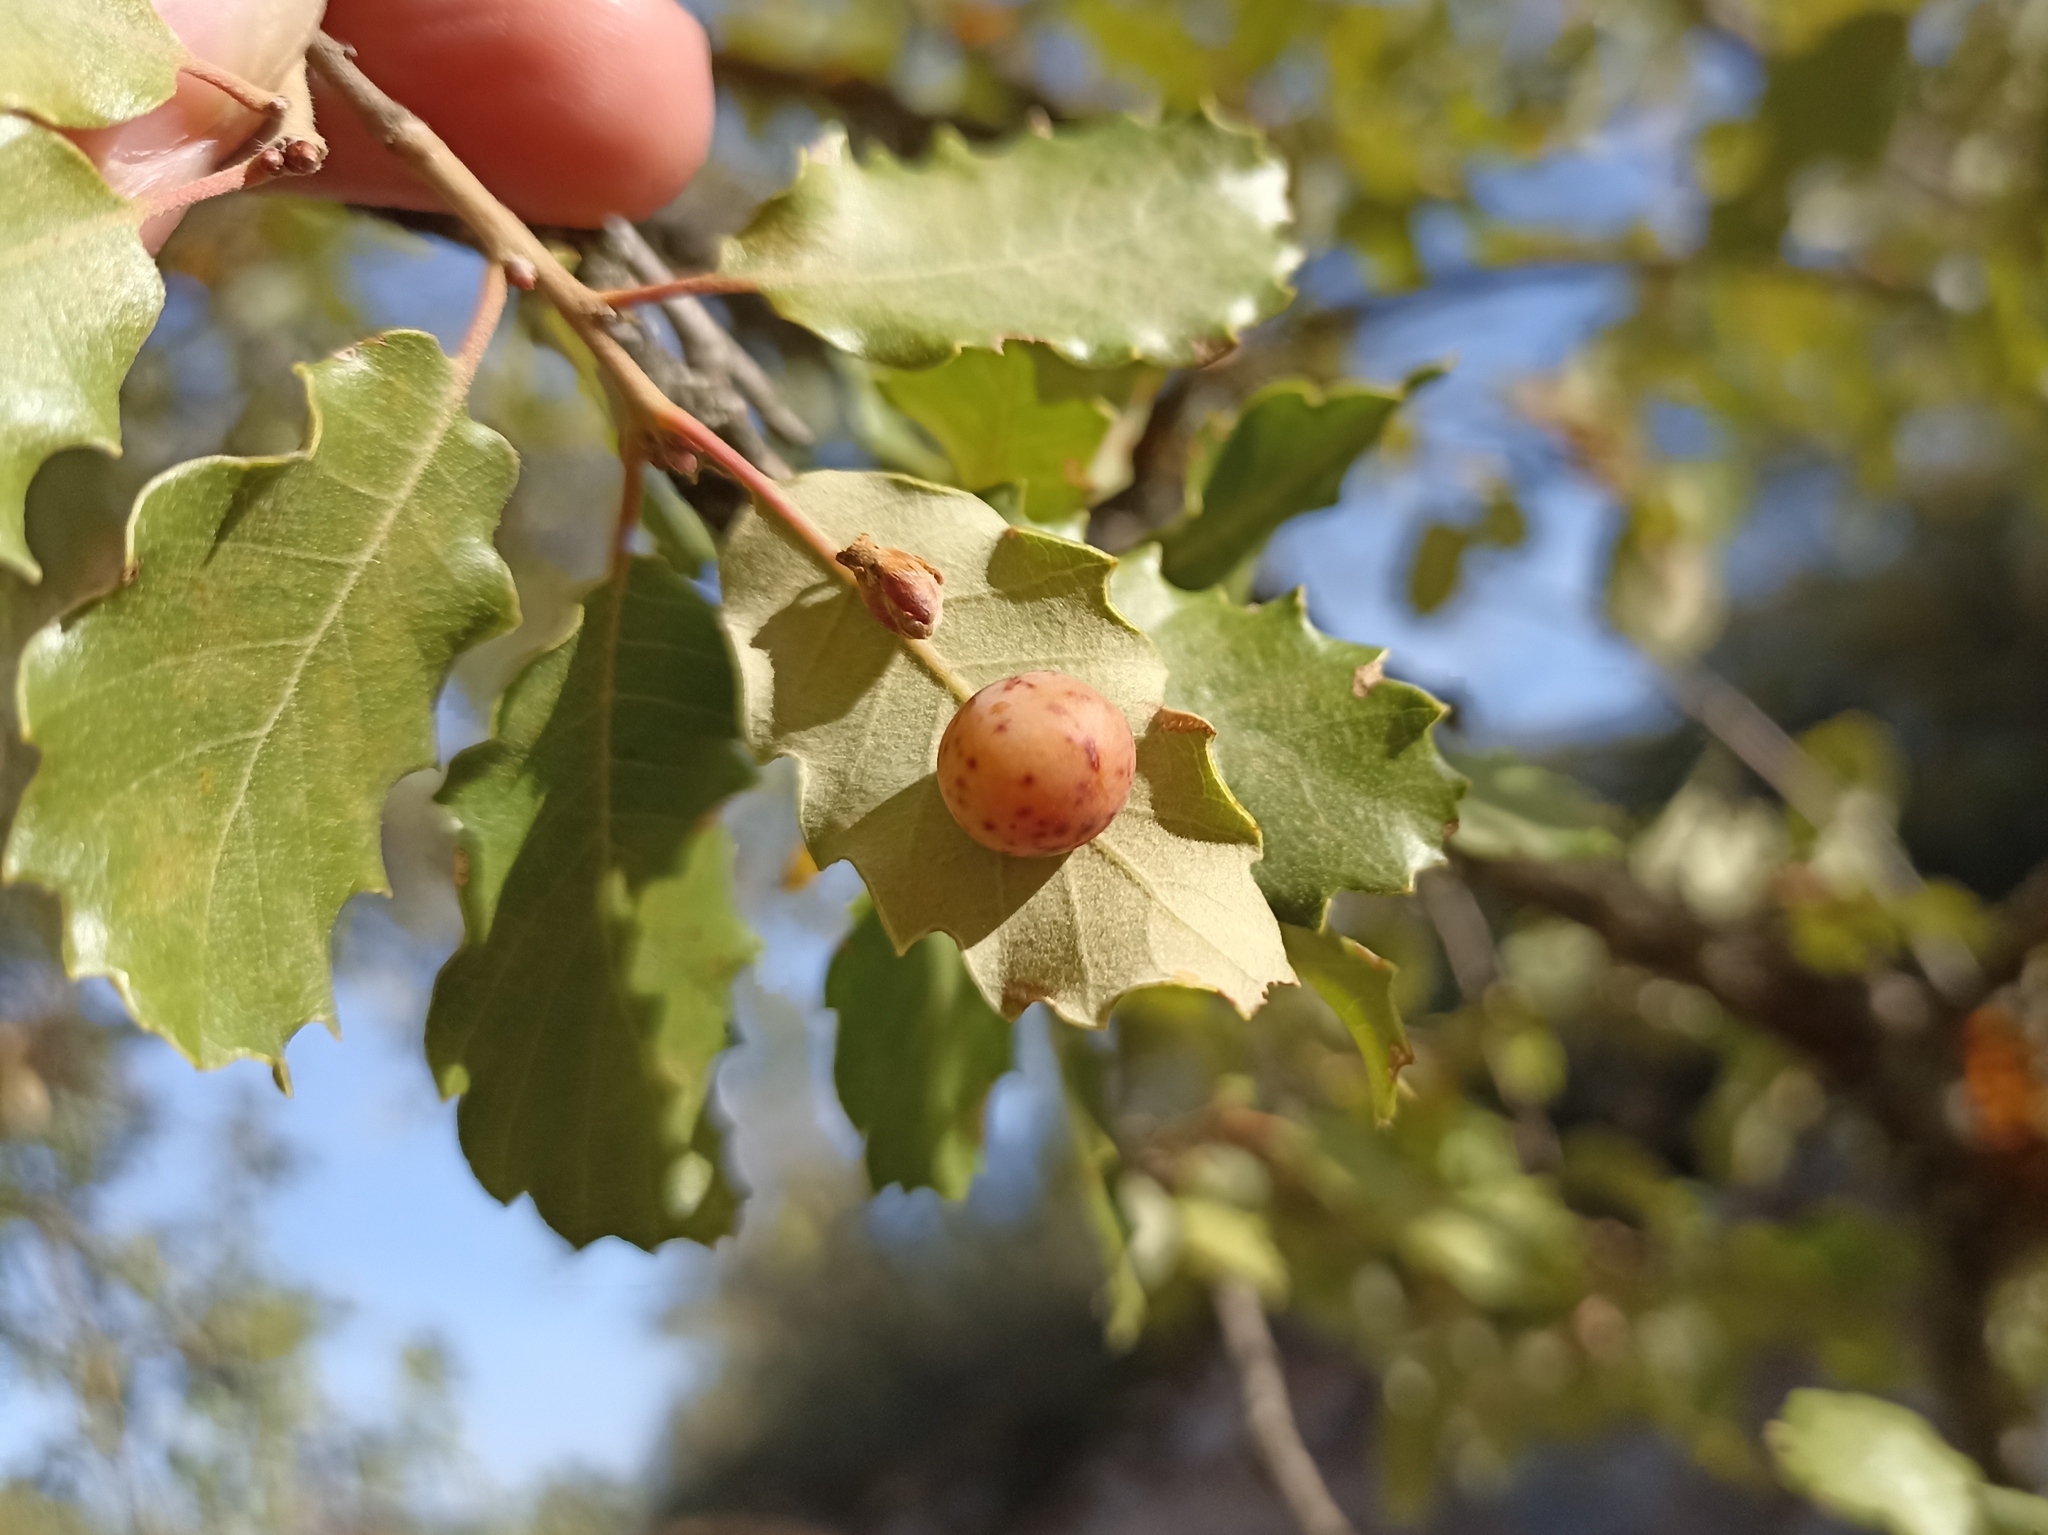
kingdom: Animalia
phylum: Arthropoda
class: Insecta
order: Hymenoptera
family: Cynipidae
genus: Cynips
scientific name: Cynips quercus
